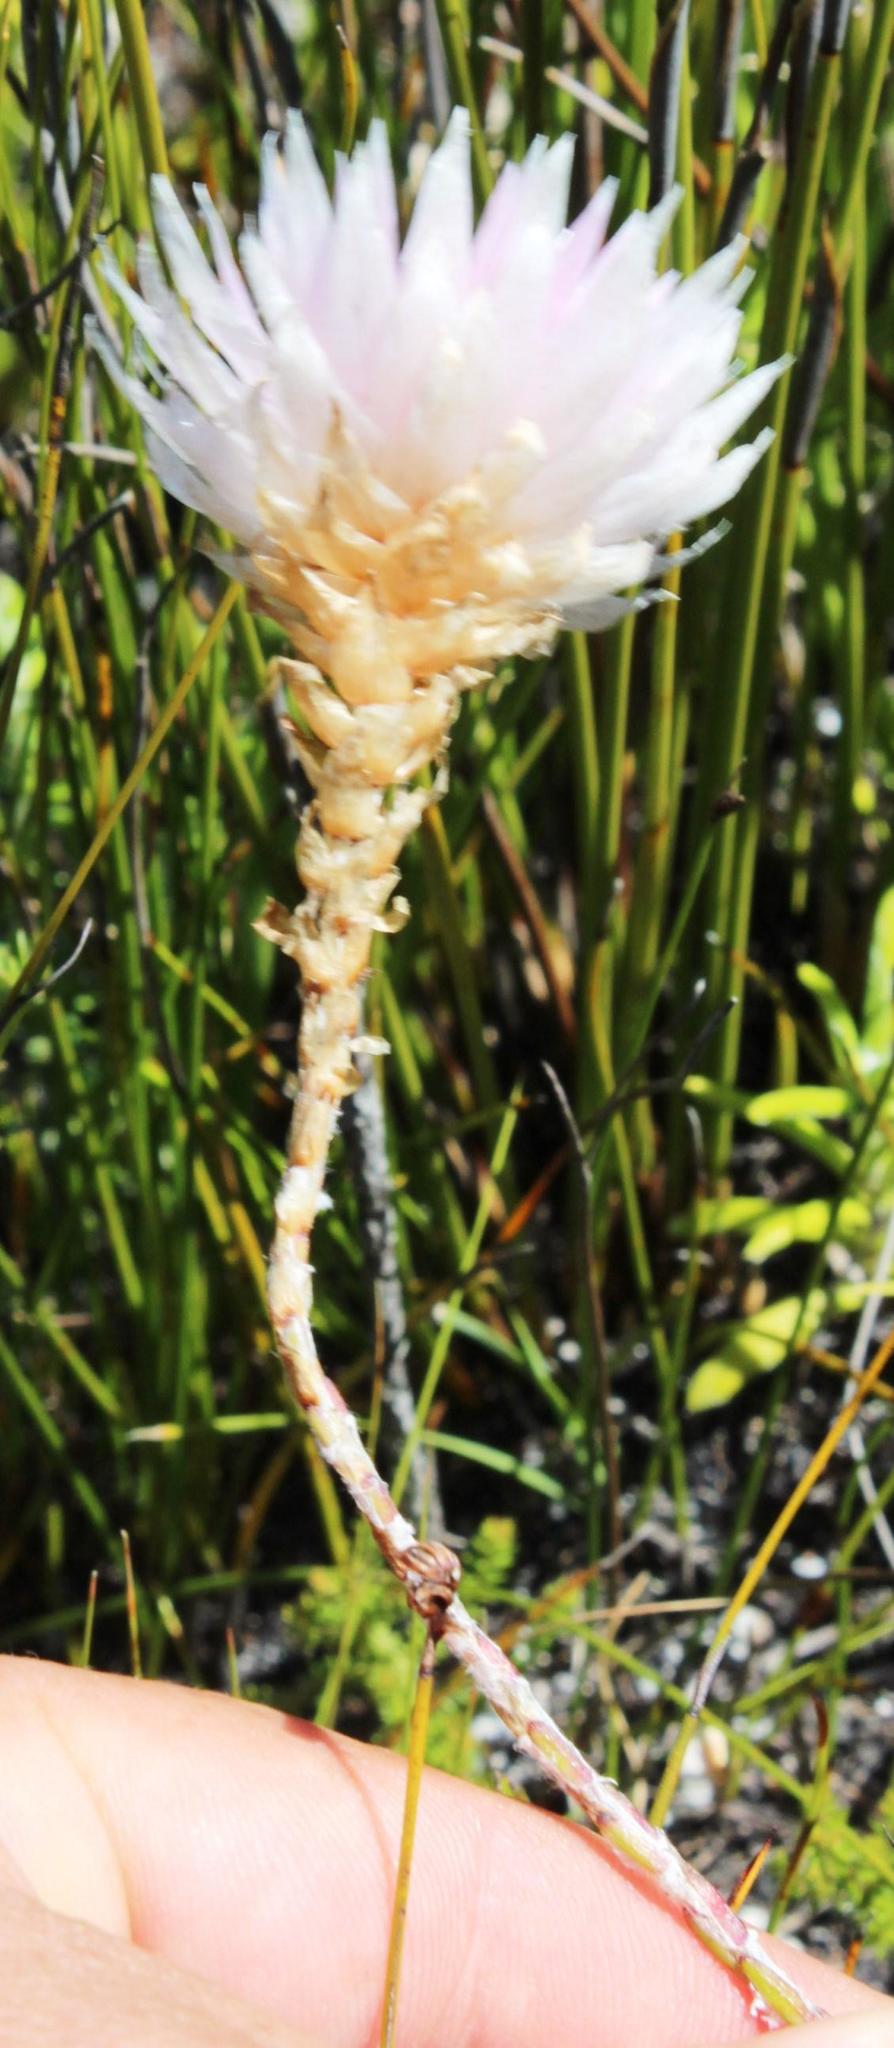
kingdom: Plantae
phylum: Tracheophyta
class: Magnoliopsida
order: Asterales
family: Asteraceae
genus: Edmondia
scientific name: Edmondia pinifolia
